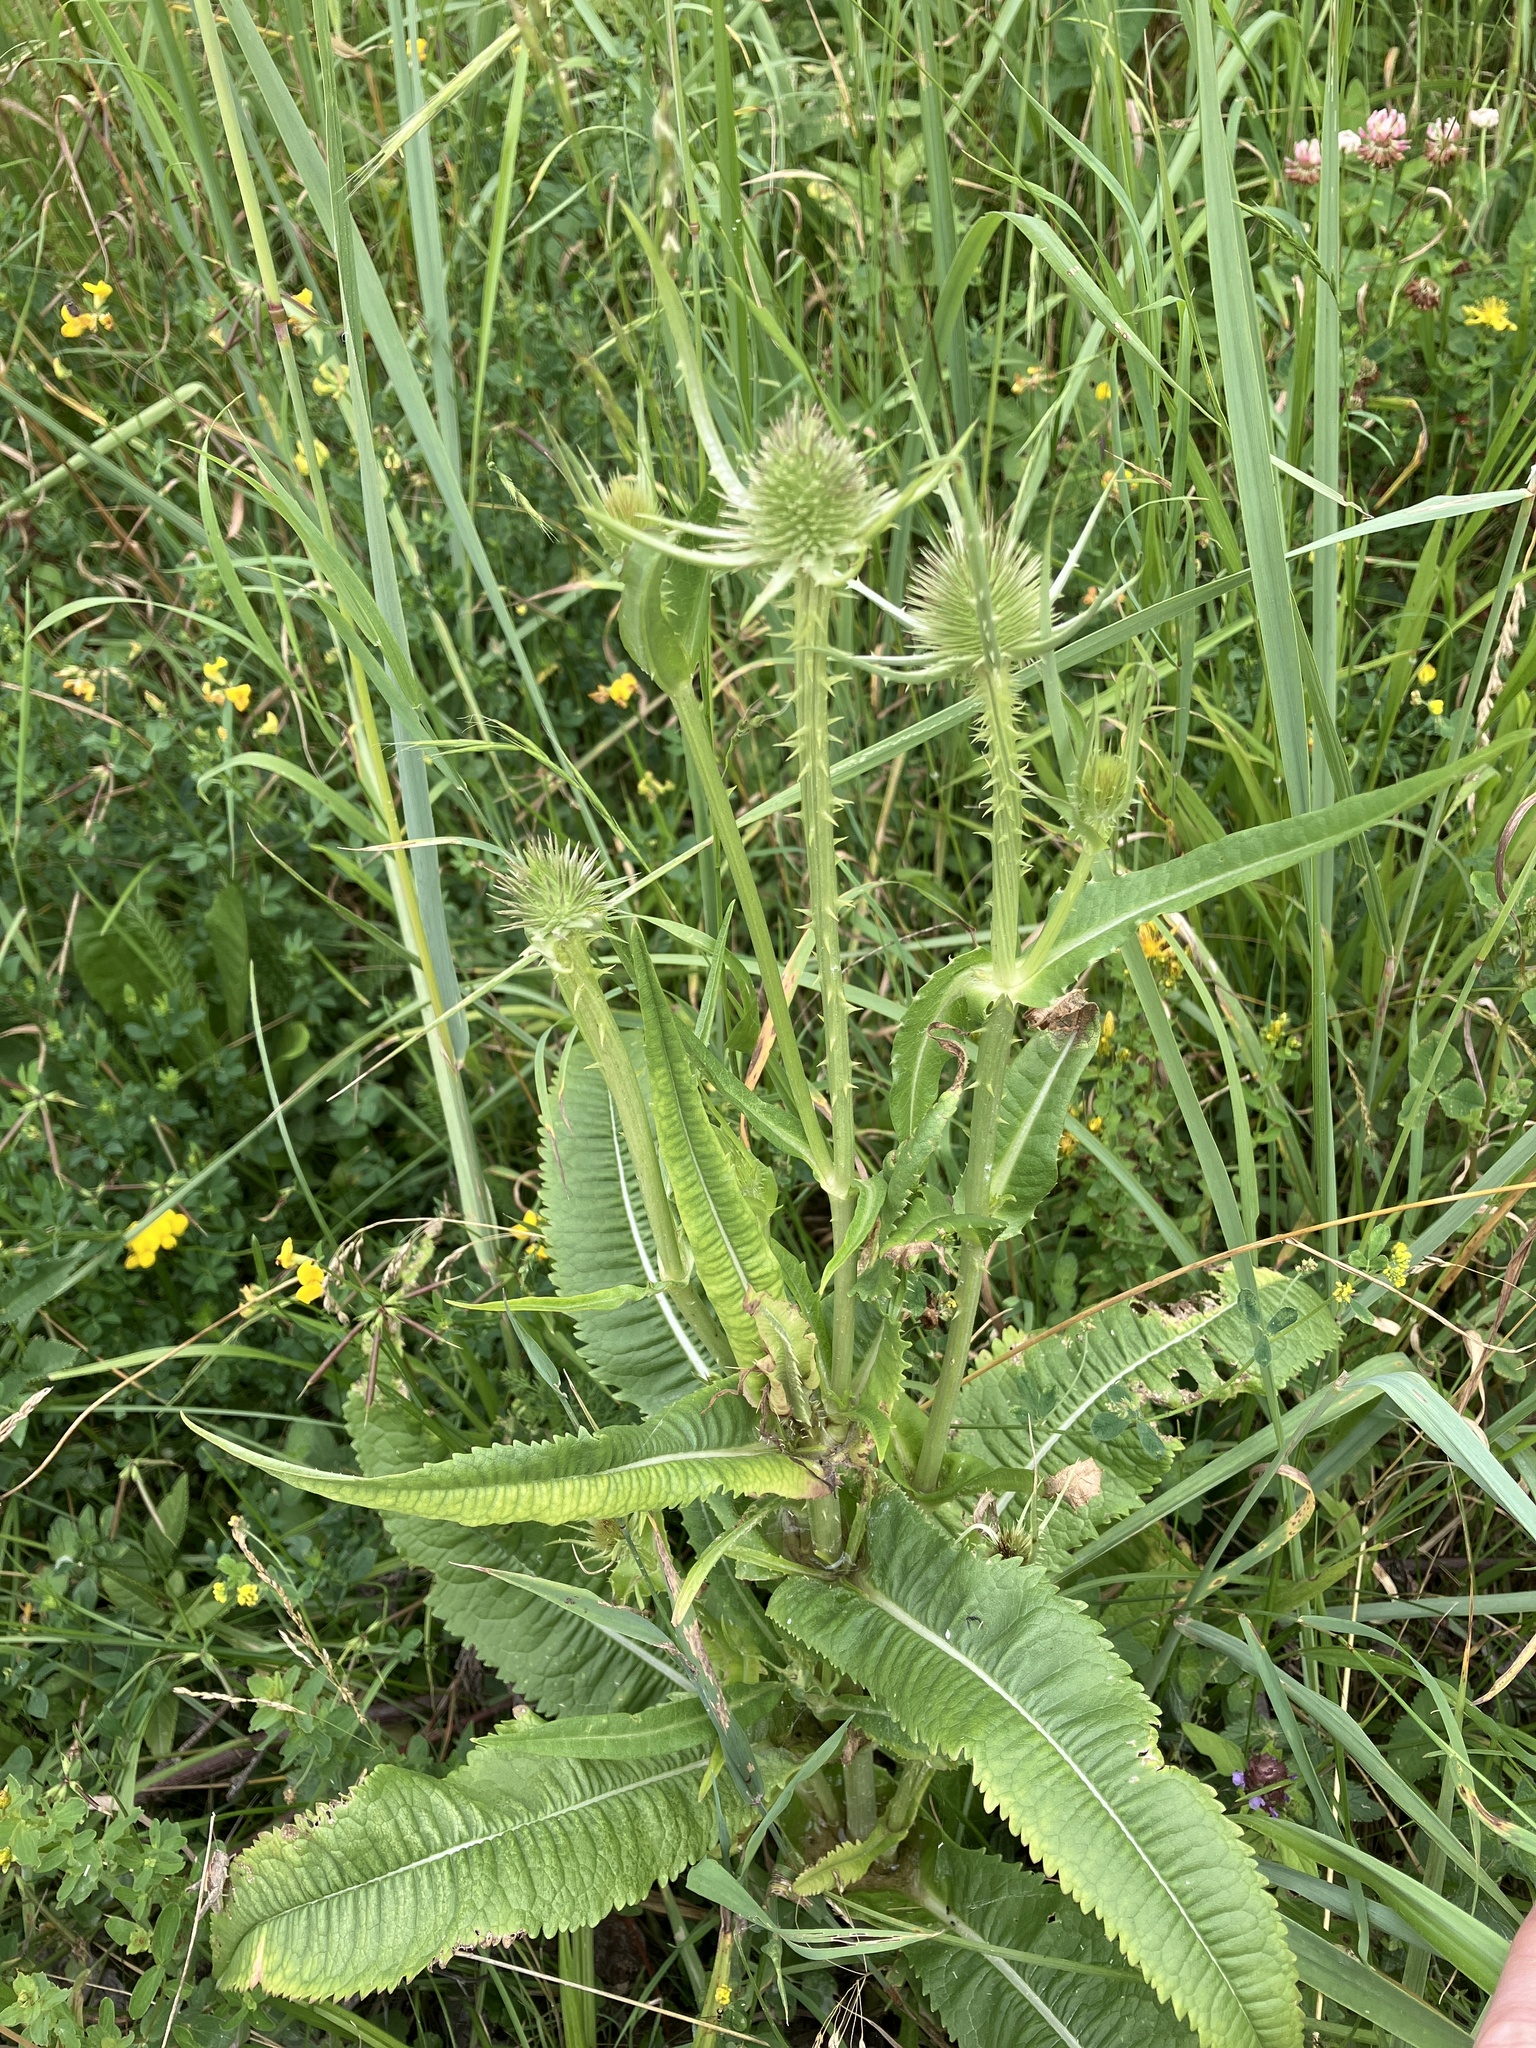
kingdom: Plantae
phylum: Tracheophyta
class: Magnoliopsida
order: Dipsacales
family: Caprifoliaceae
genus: Dipsacus
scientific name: Dipsacus fullonum
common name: Teasel
